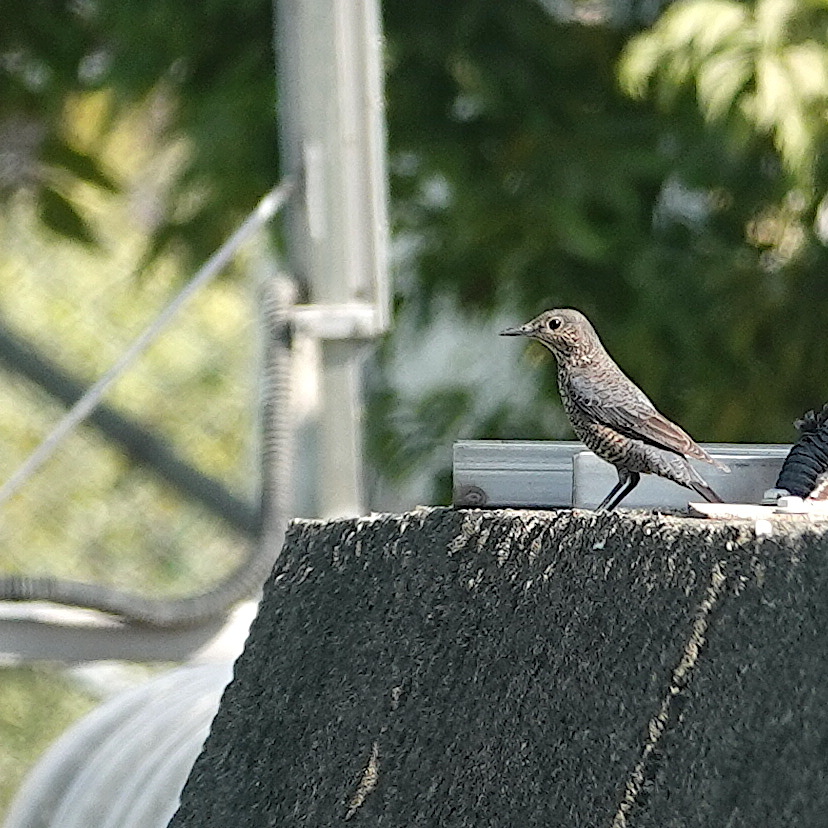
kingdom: Animalia
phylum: Chordata
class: Aves
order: Passeriformes
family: Muscicapidae
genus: Monticola
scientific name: Monticola solitarius
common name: Blue rock thrush
